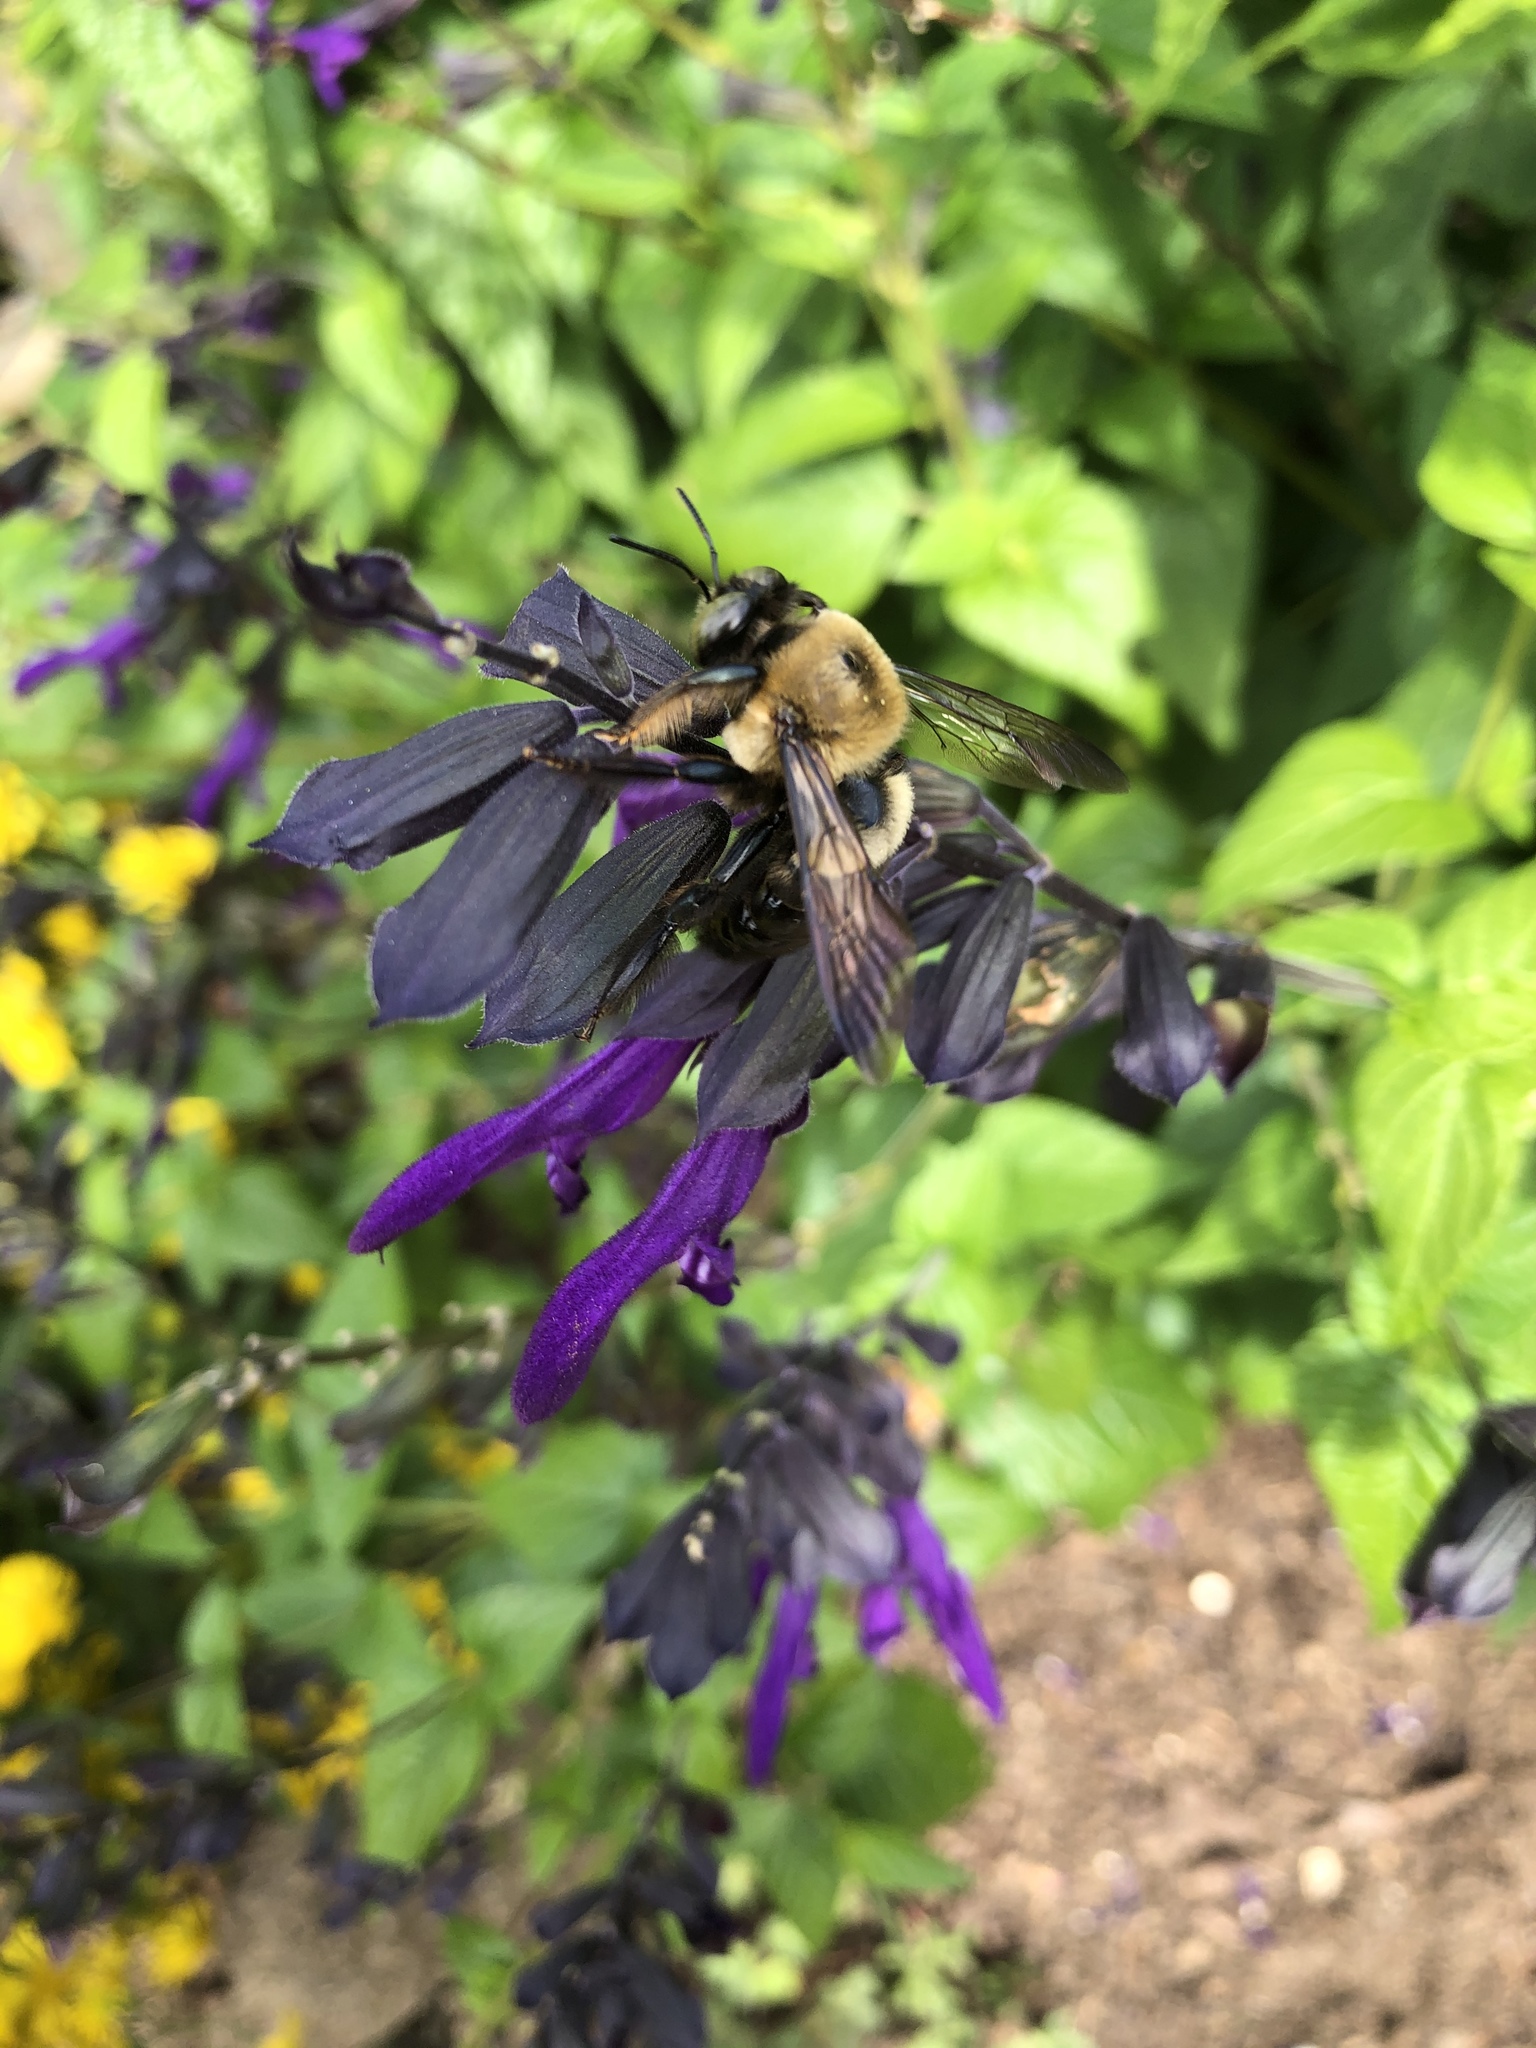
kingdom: Animalia
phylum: Arthropoda
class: Insecta
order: Hymenoptera
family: Apidae
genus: Xylocopa
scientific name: Xylocopa virginica
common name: Carpenter bee
